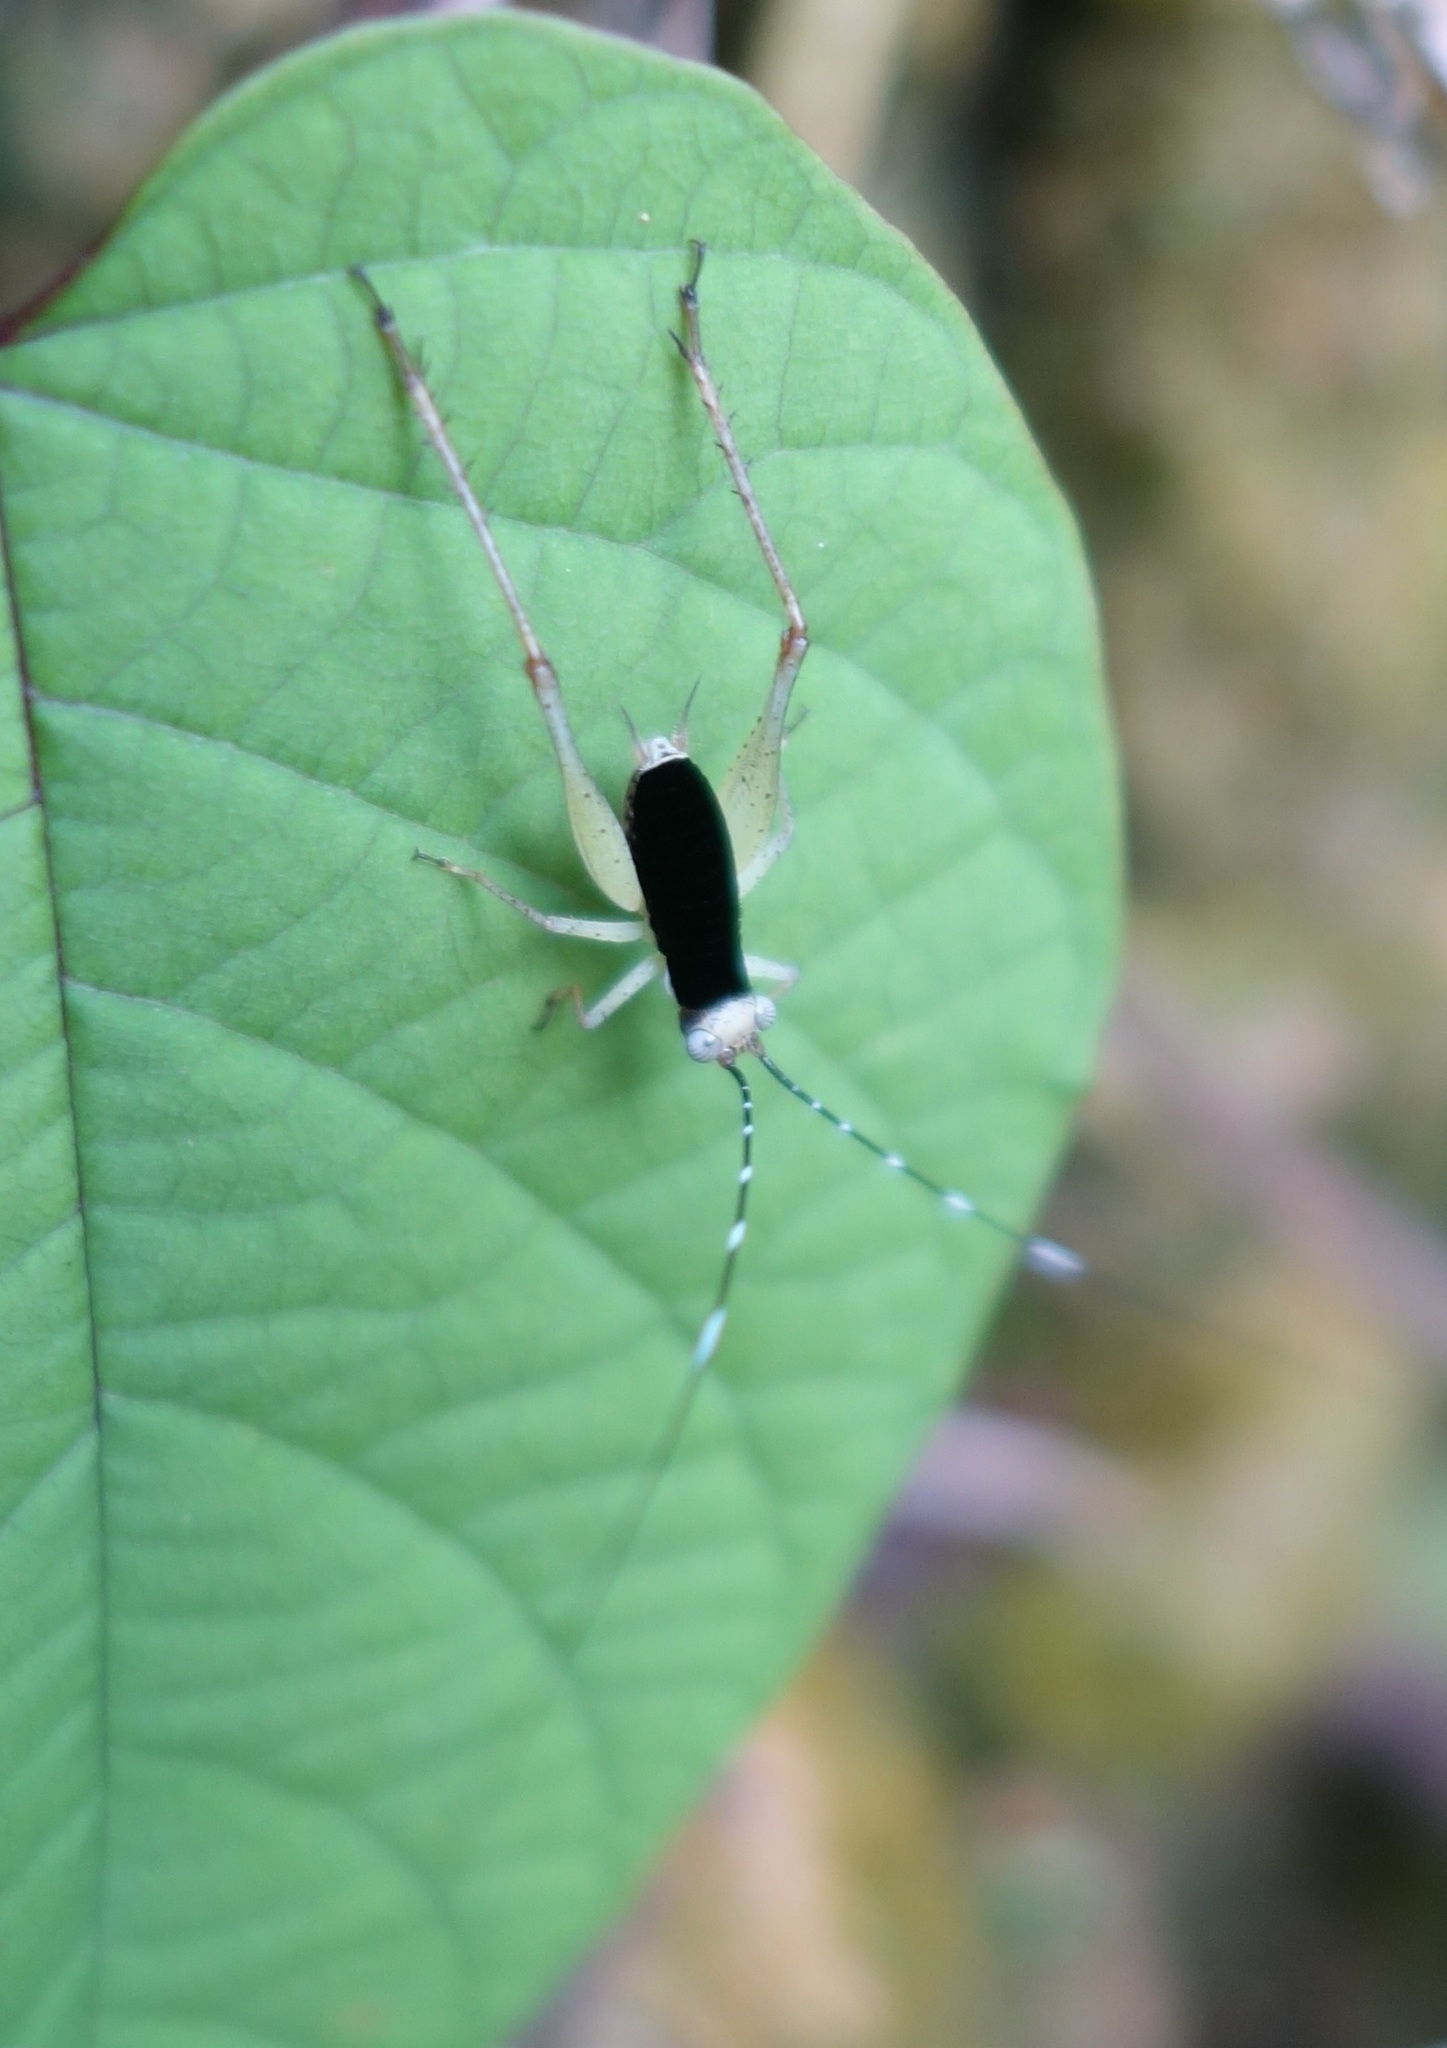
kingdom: Animalia
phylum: Arthropoda
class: Insecta
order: Orthoptera
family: Gryllidae
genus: Nisitrus
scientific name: Nisitrus insignis
